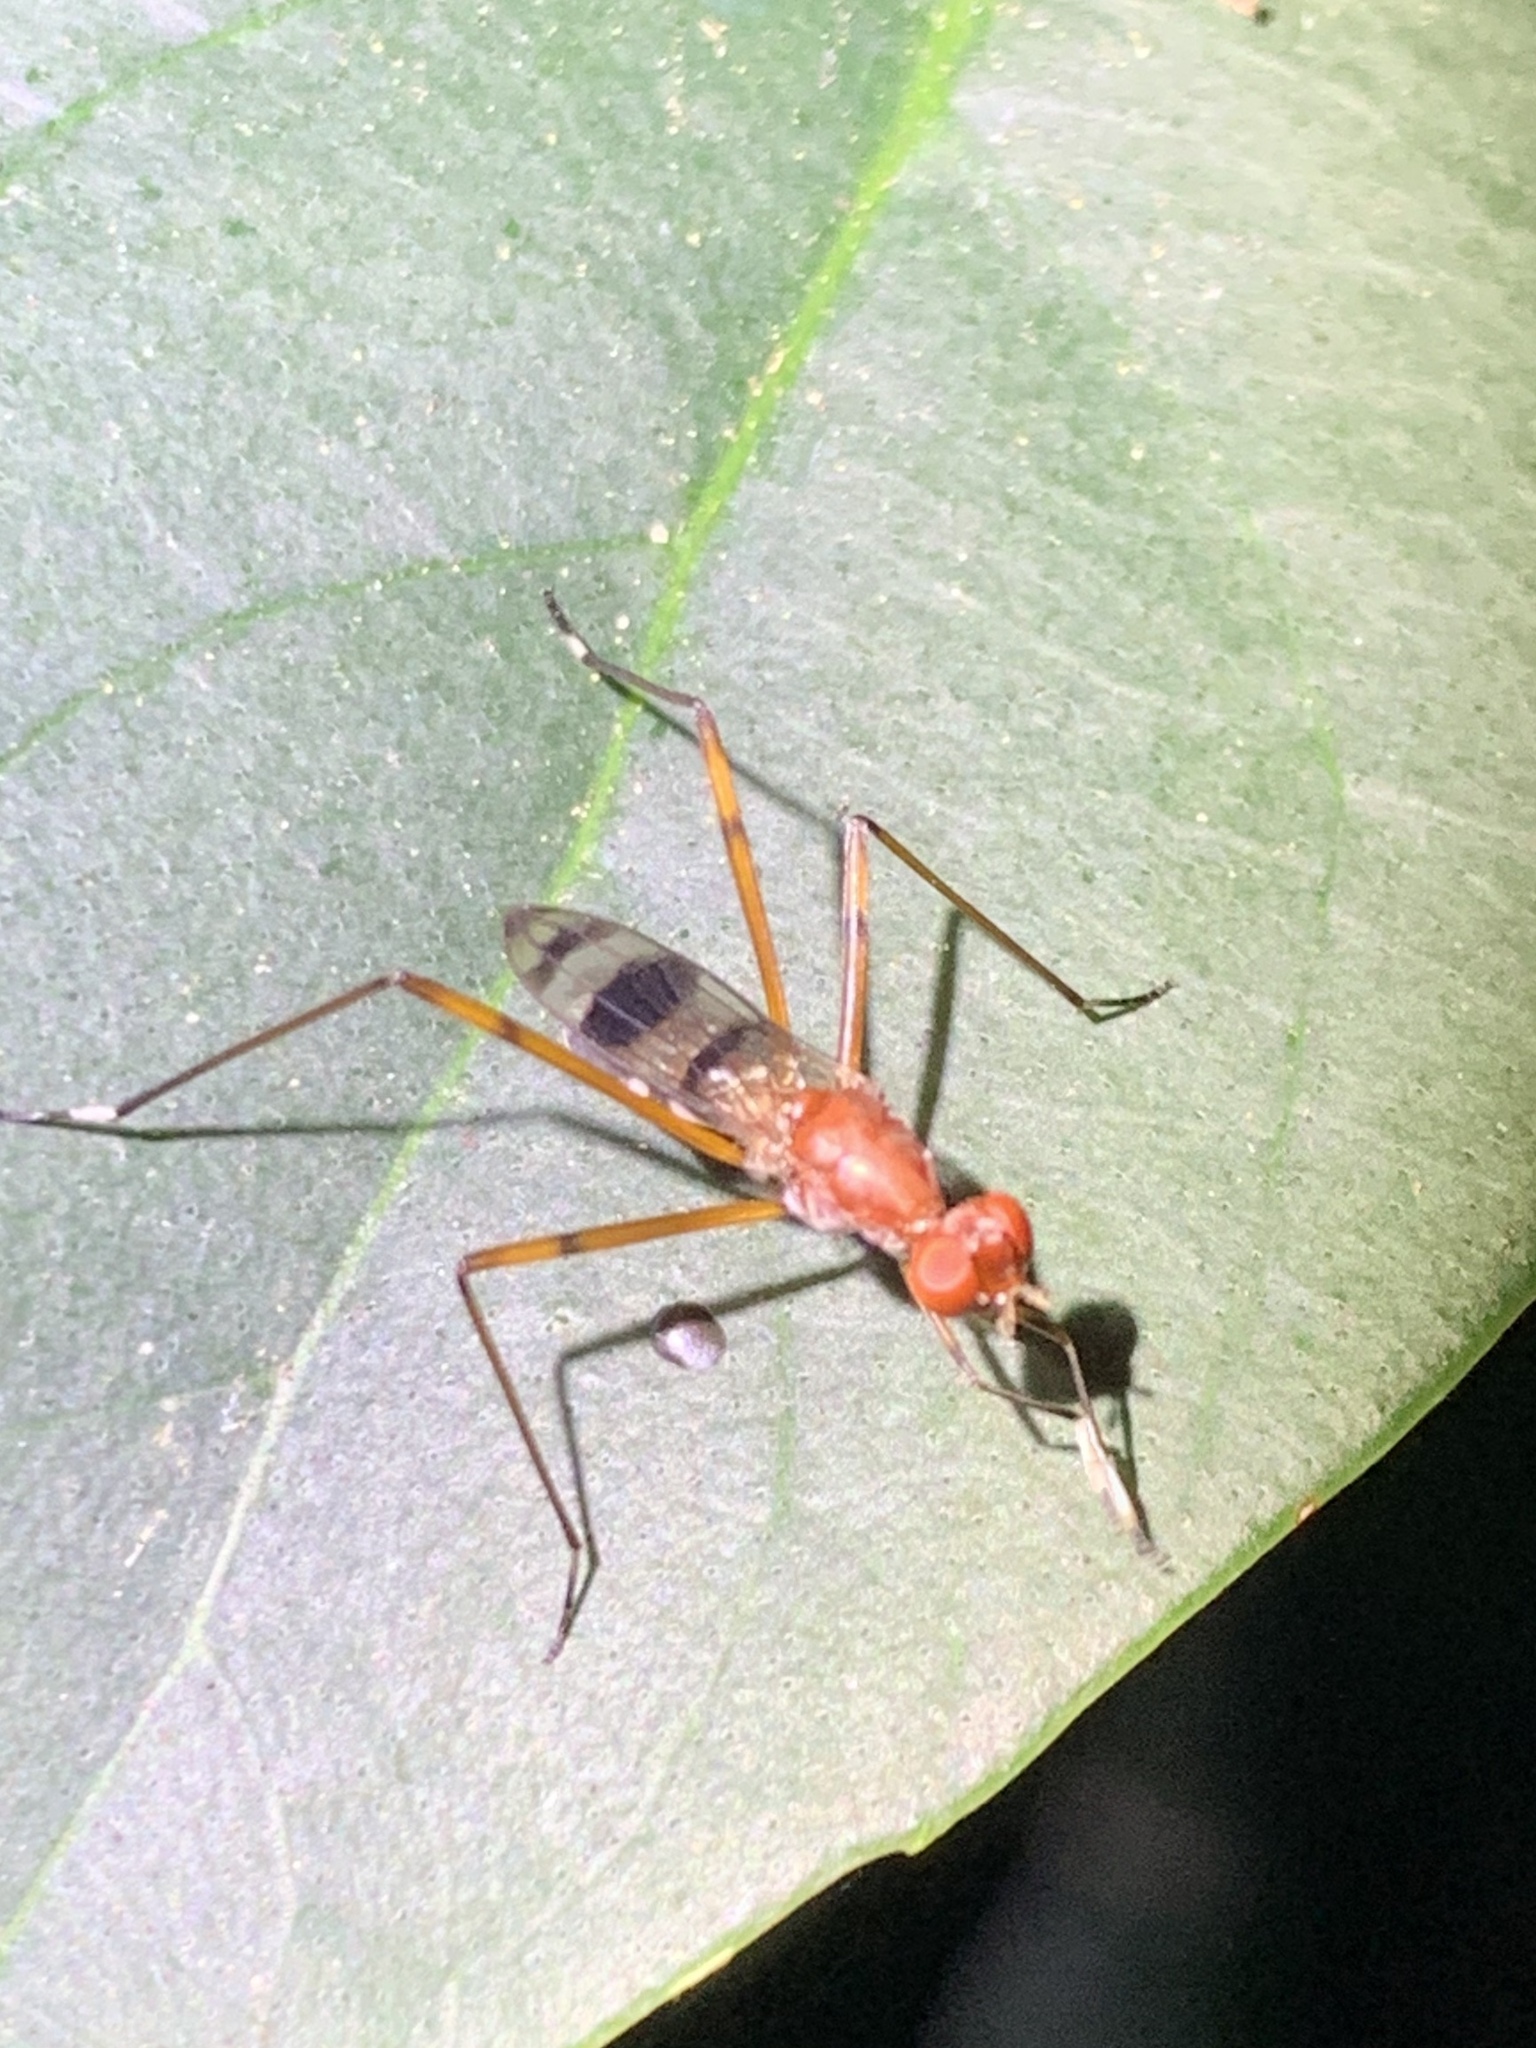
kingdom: Animalia
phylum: Arthropoda
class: Insecta
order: Diptera
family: Micropezidae
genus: Hoplocheiloma
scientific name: Hoplocheiloma totliana
